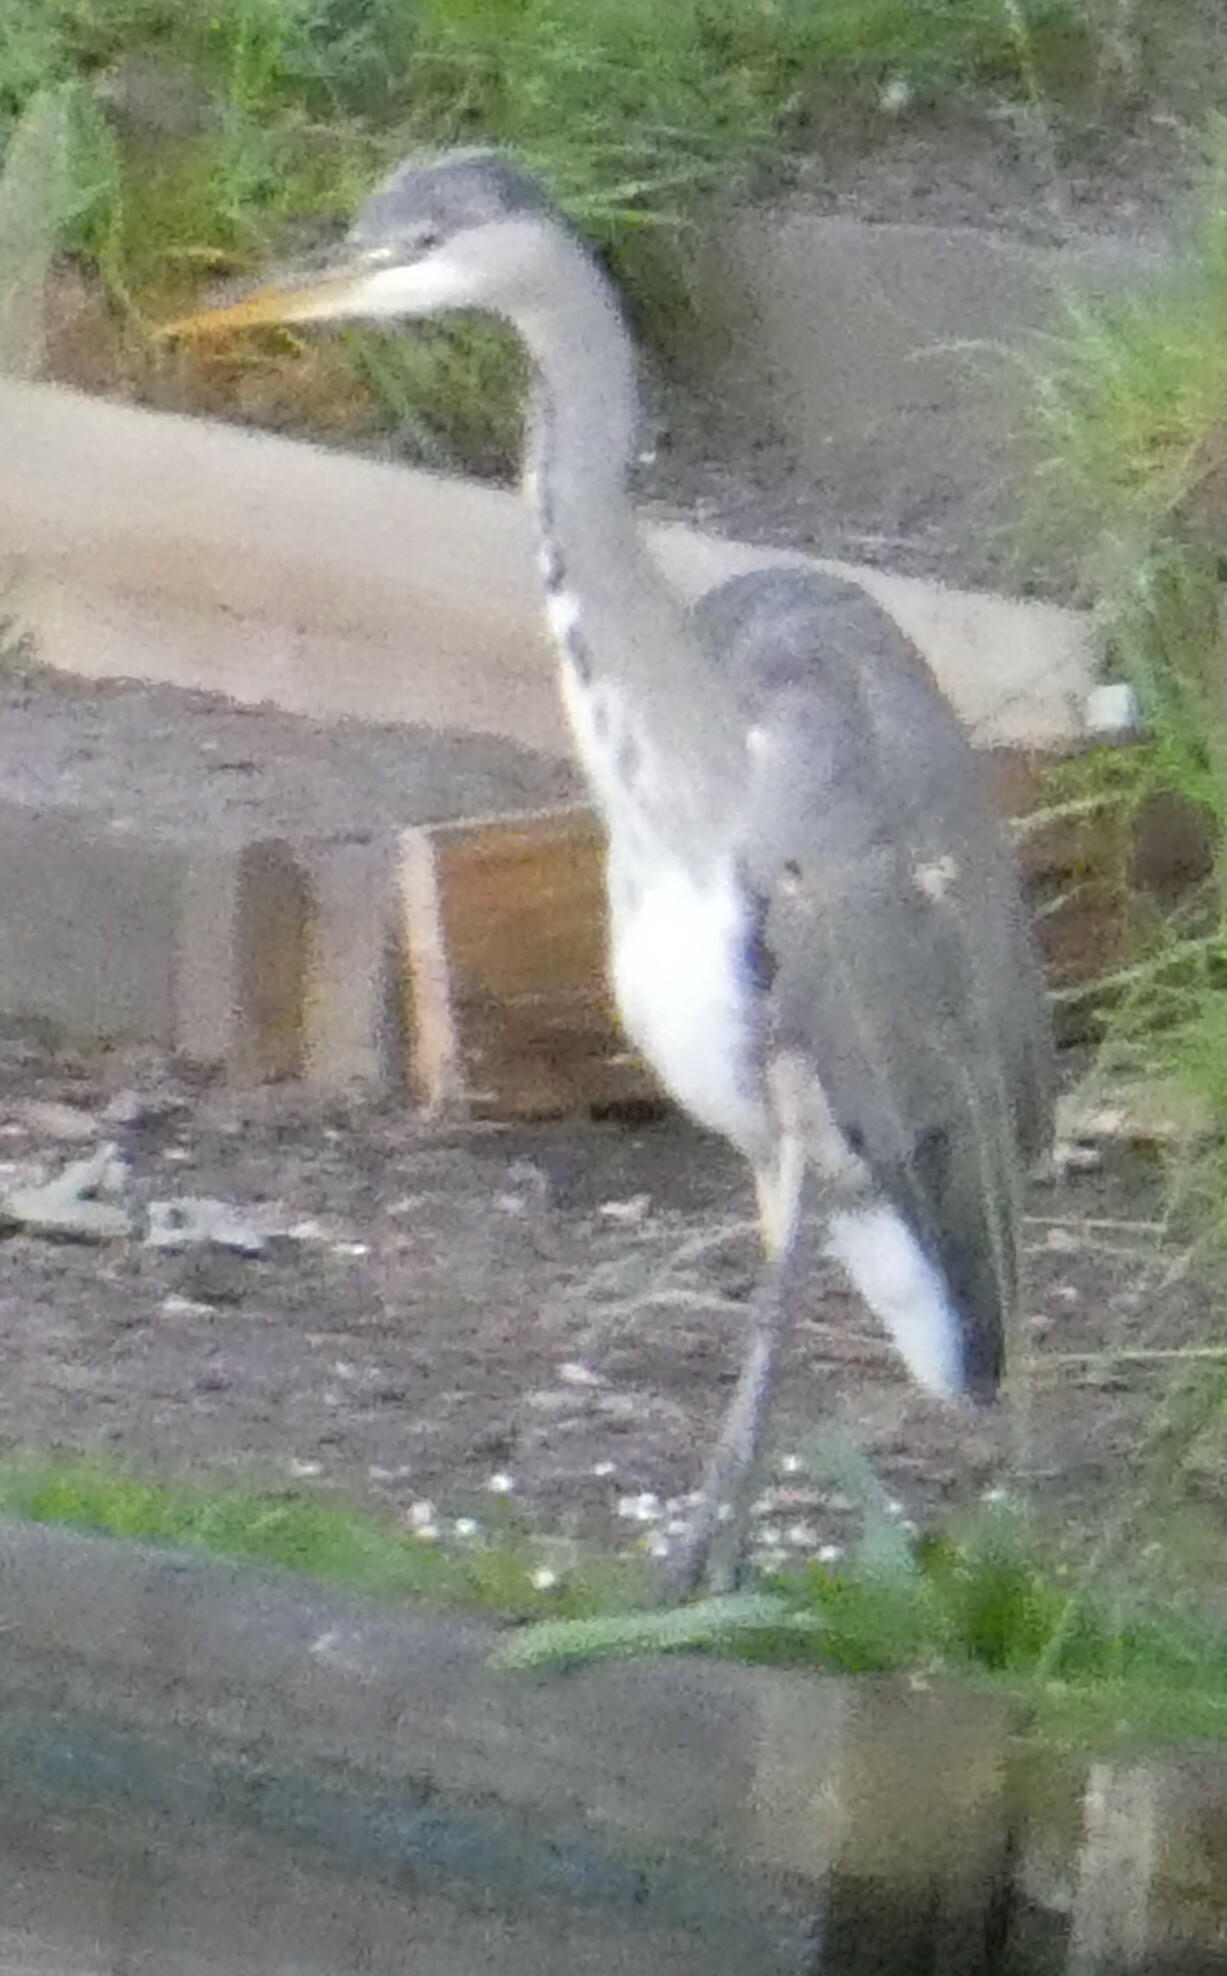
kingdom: Animalia
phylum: Chordata
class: Aves
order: Pelecaniformes
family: Ardeidae
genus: Ardea
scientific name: Ardea cinerea
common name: Grey heron
